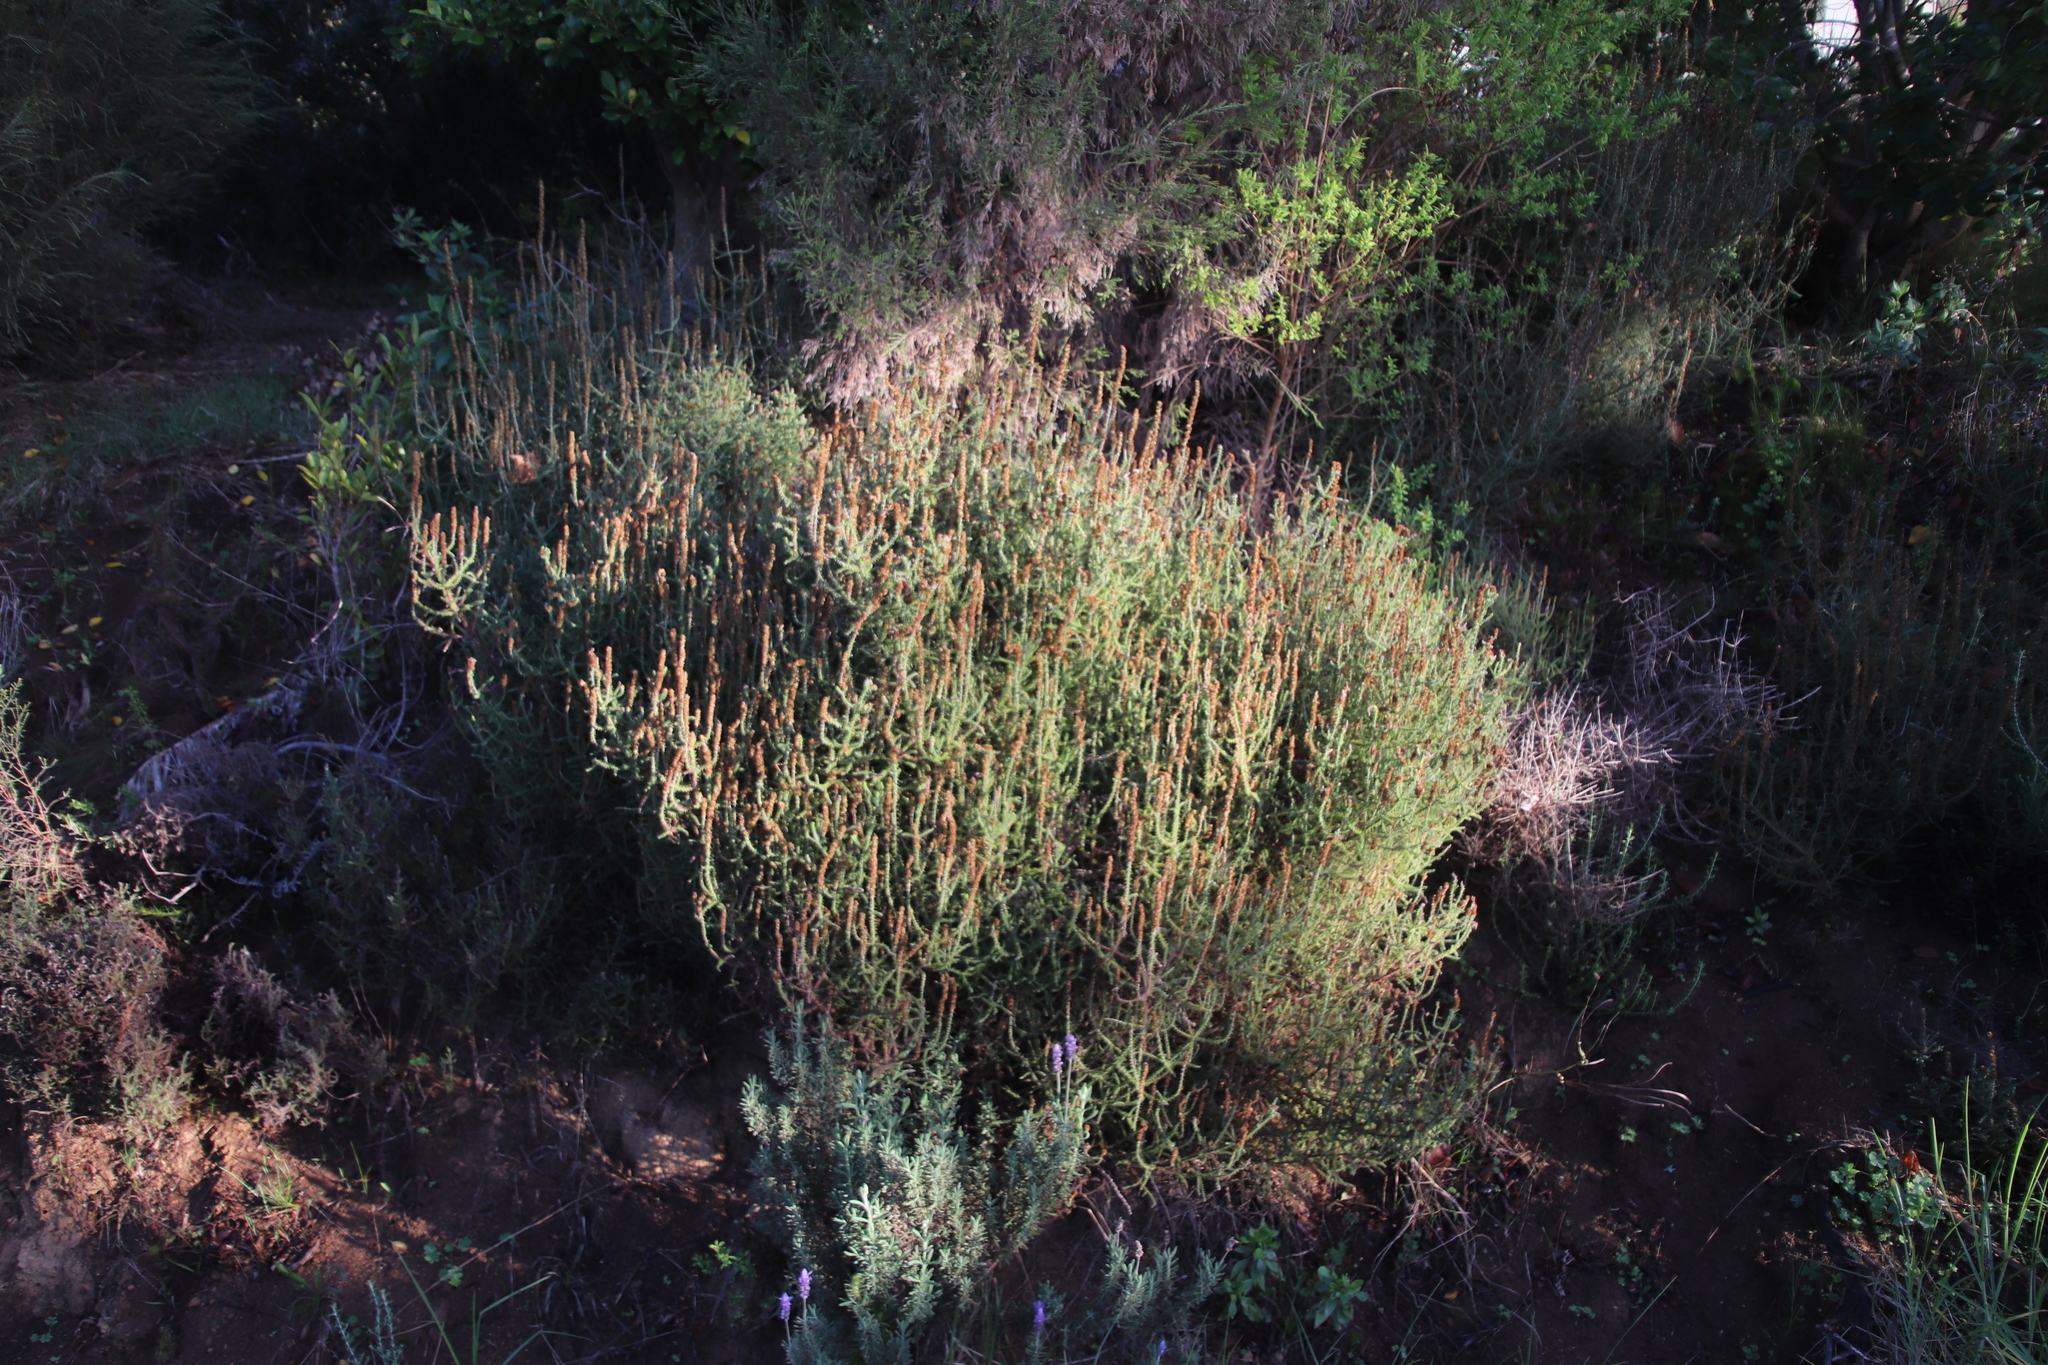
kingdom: Plantae
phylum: Tracheophyta
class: Magnoliopsida
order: Asterales
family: Asteraceae
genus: Seriphium
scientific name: Seriphium cinereum
